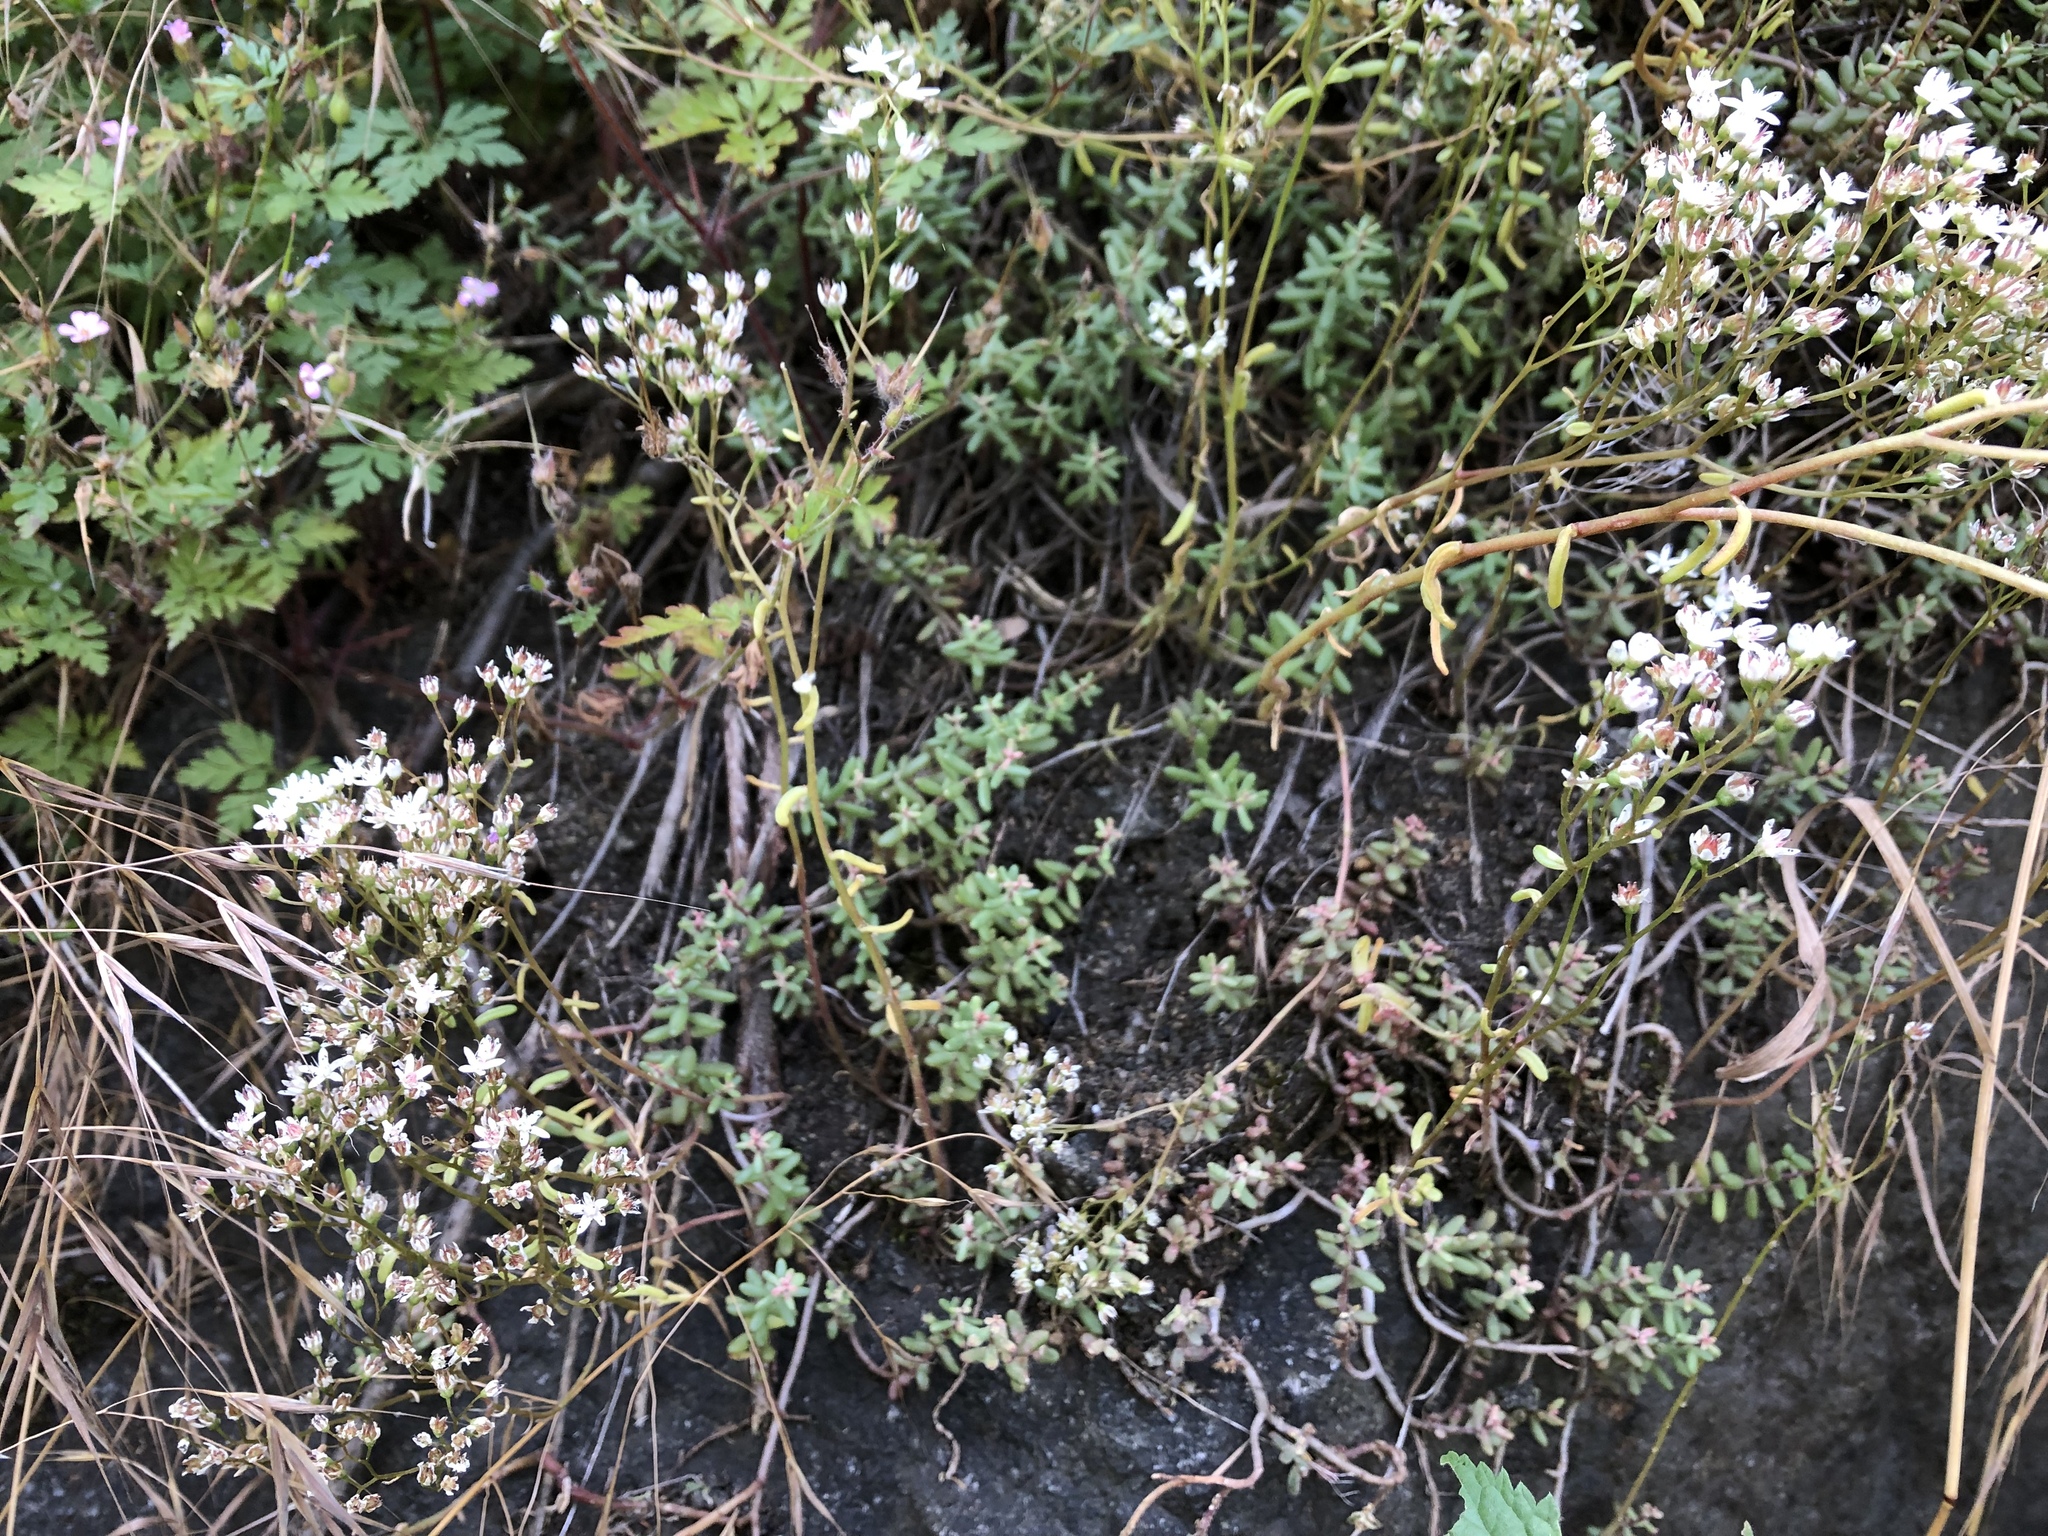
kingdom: Plantae
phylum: Tracheophyta
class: Magnoliopsida
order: Saxifragales
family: Crassulaceae
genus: Sedum
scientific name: Sedum album
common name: White stonecrop
